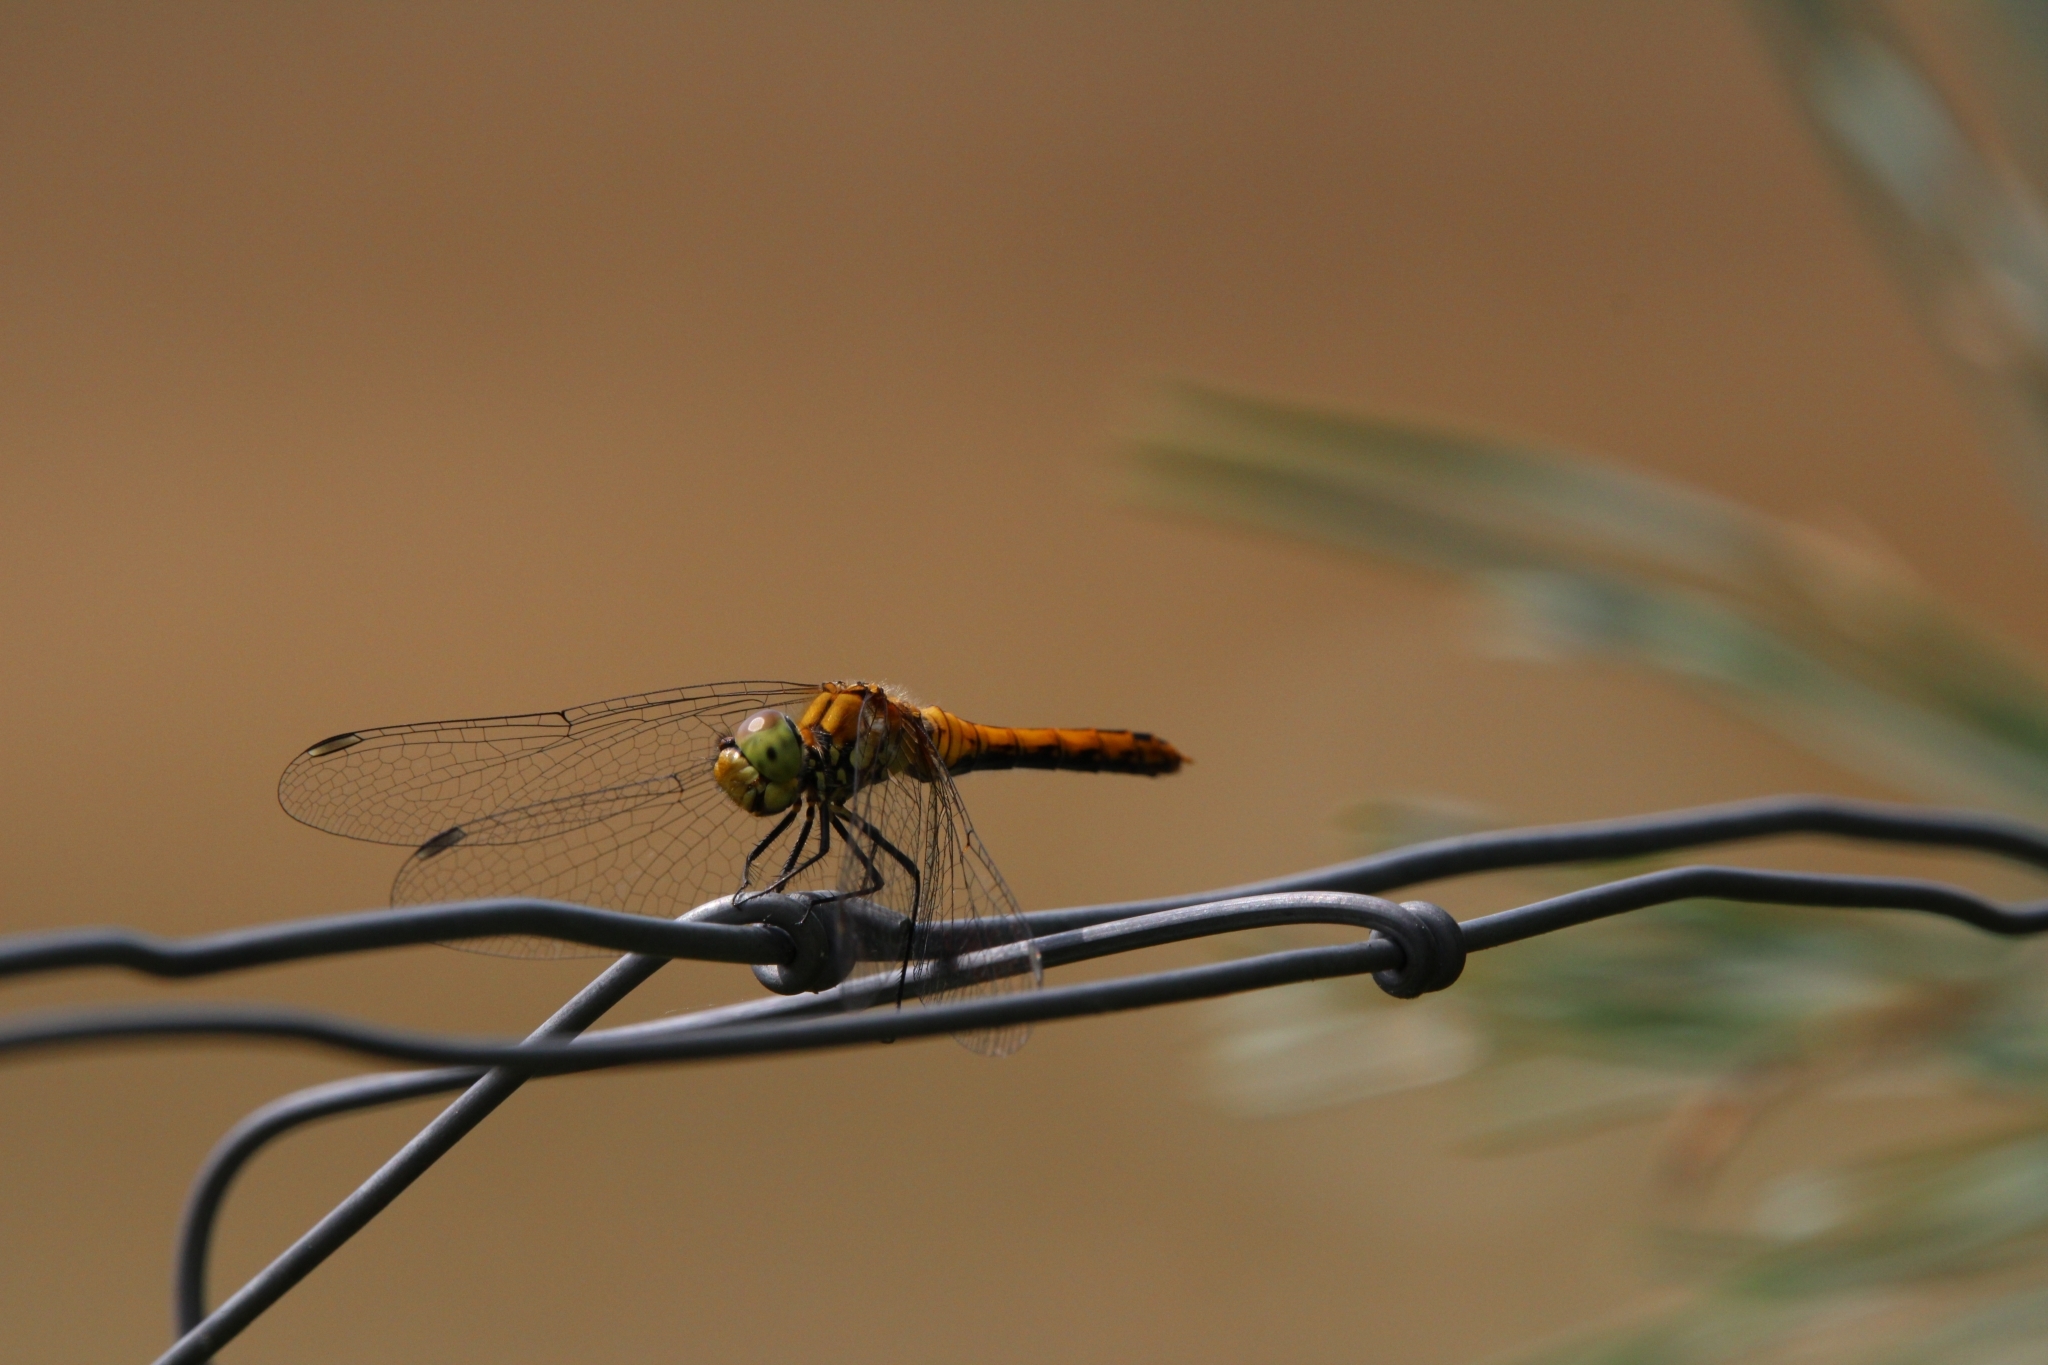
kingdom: Animalia
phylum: Arthropoda
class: Insecta
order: Odonata
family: Libellulidae
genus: Sympetrum
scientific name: Sympetrum sanguineum
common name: Ruddy darter
